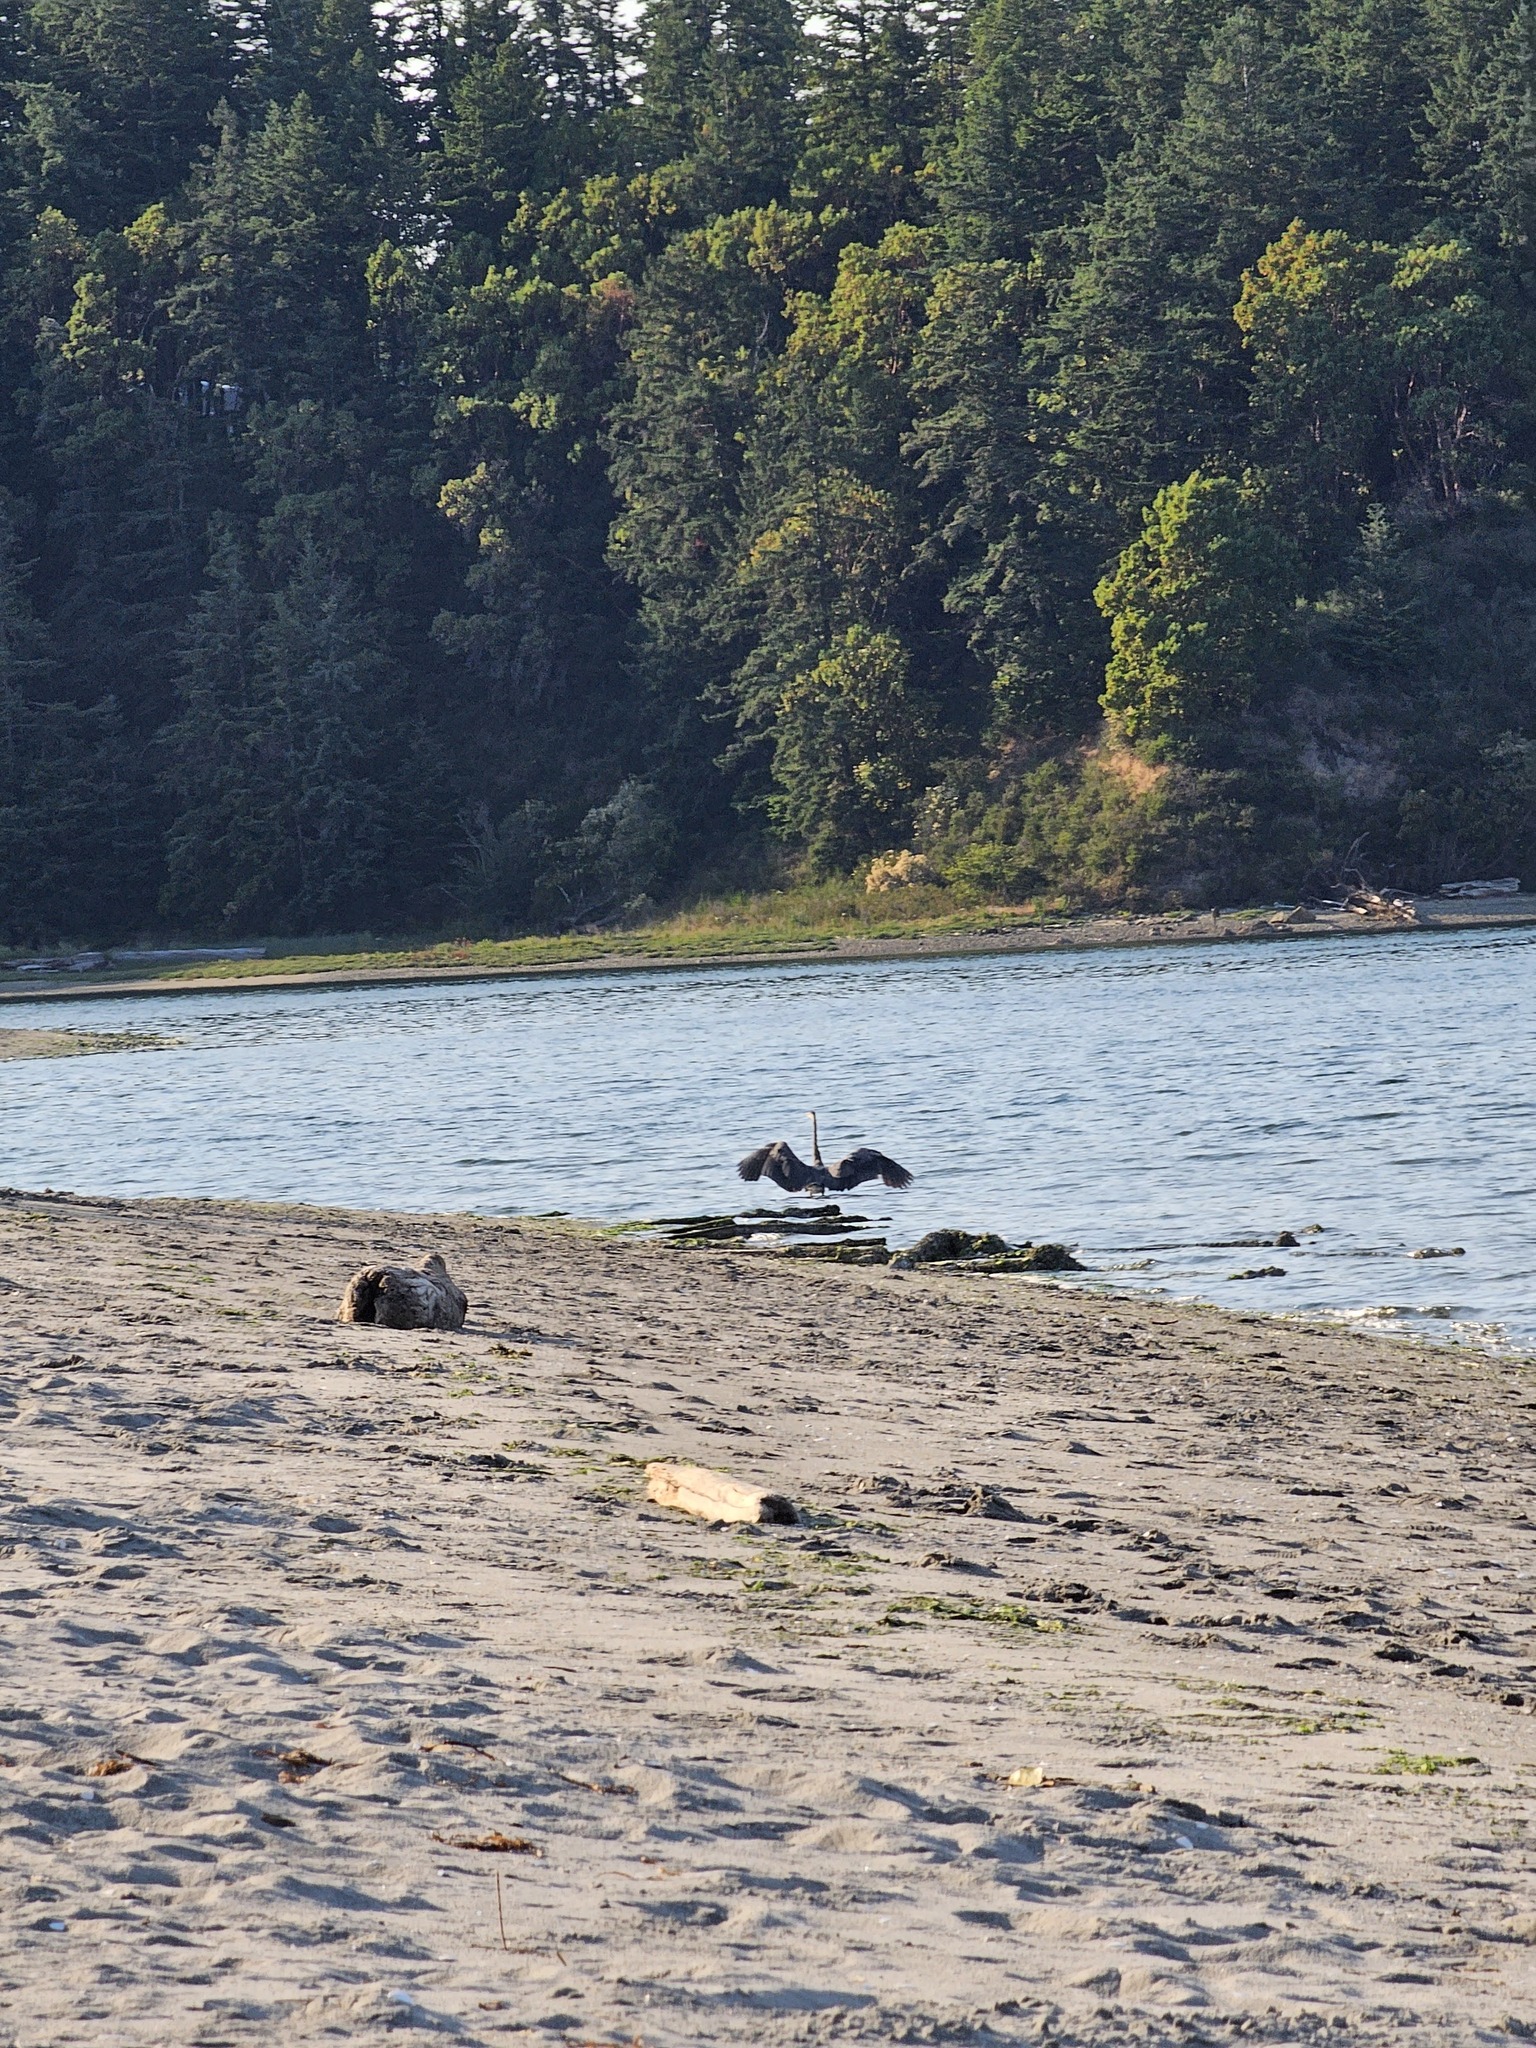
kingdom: Animalia
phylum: Chordata
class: Aves
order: Pelecaniformes
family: Ardeidae
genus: Ardea
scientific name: Ardea herodias
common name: Great blue heron
